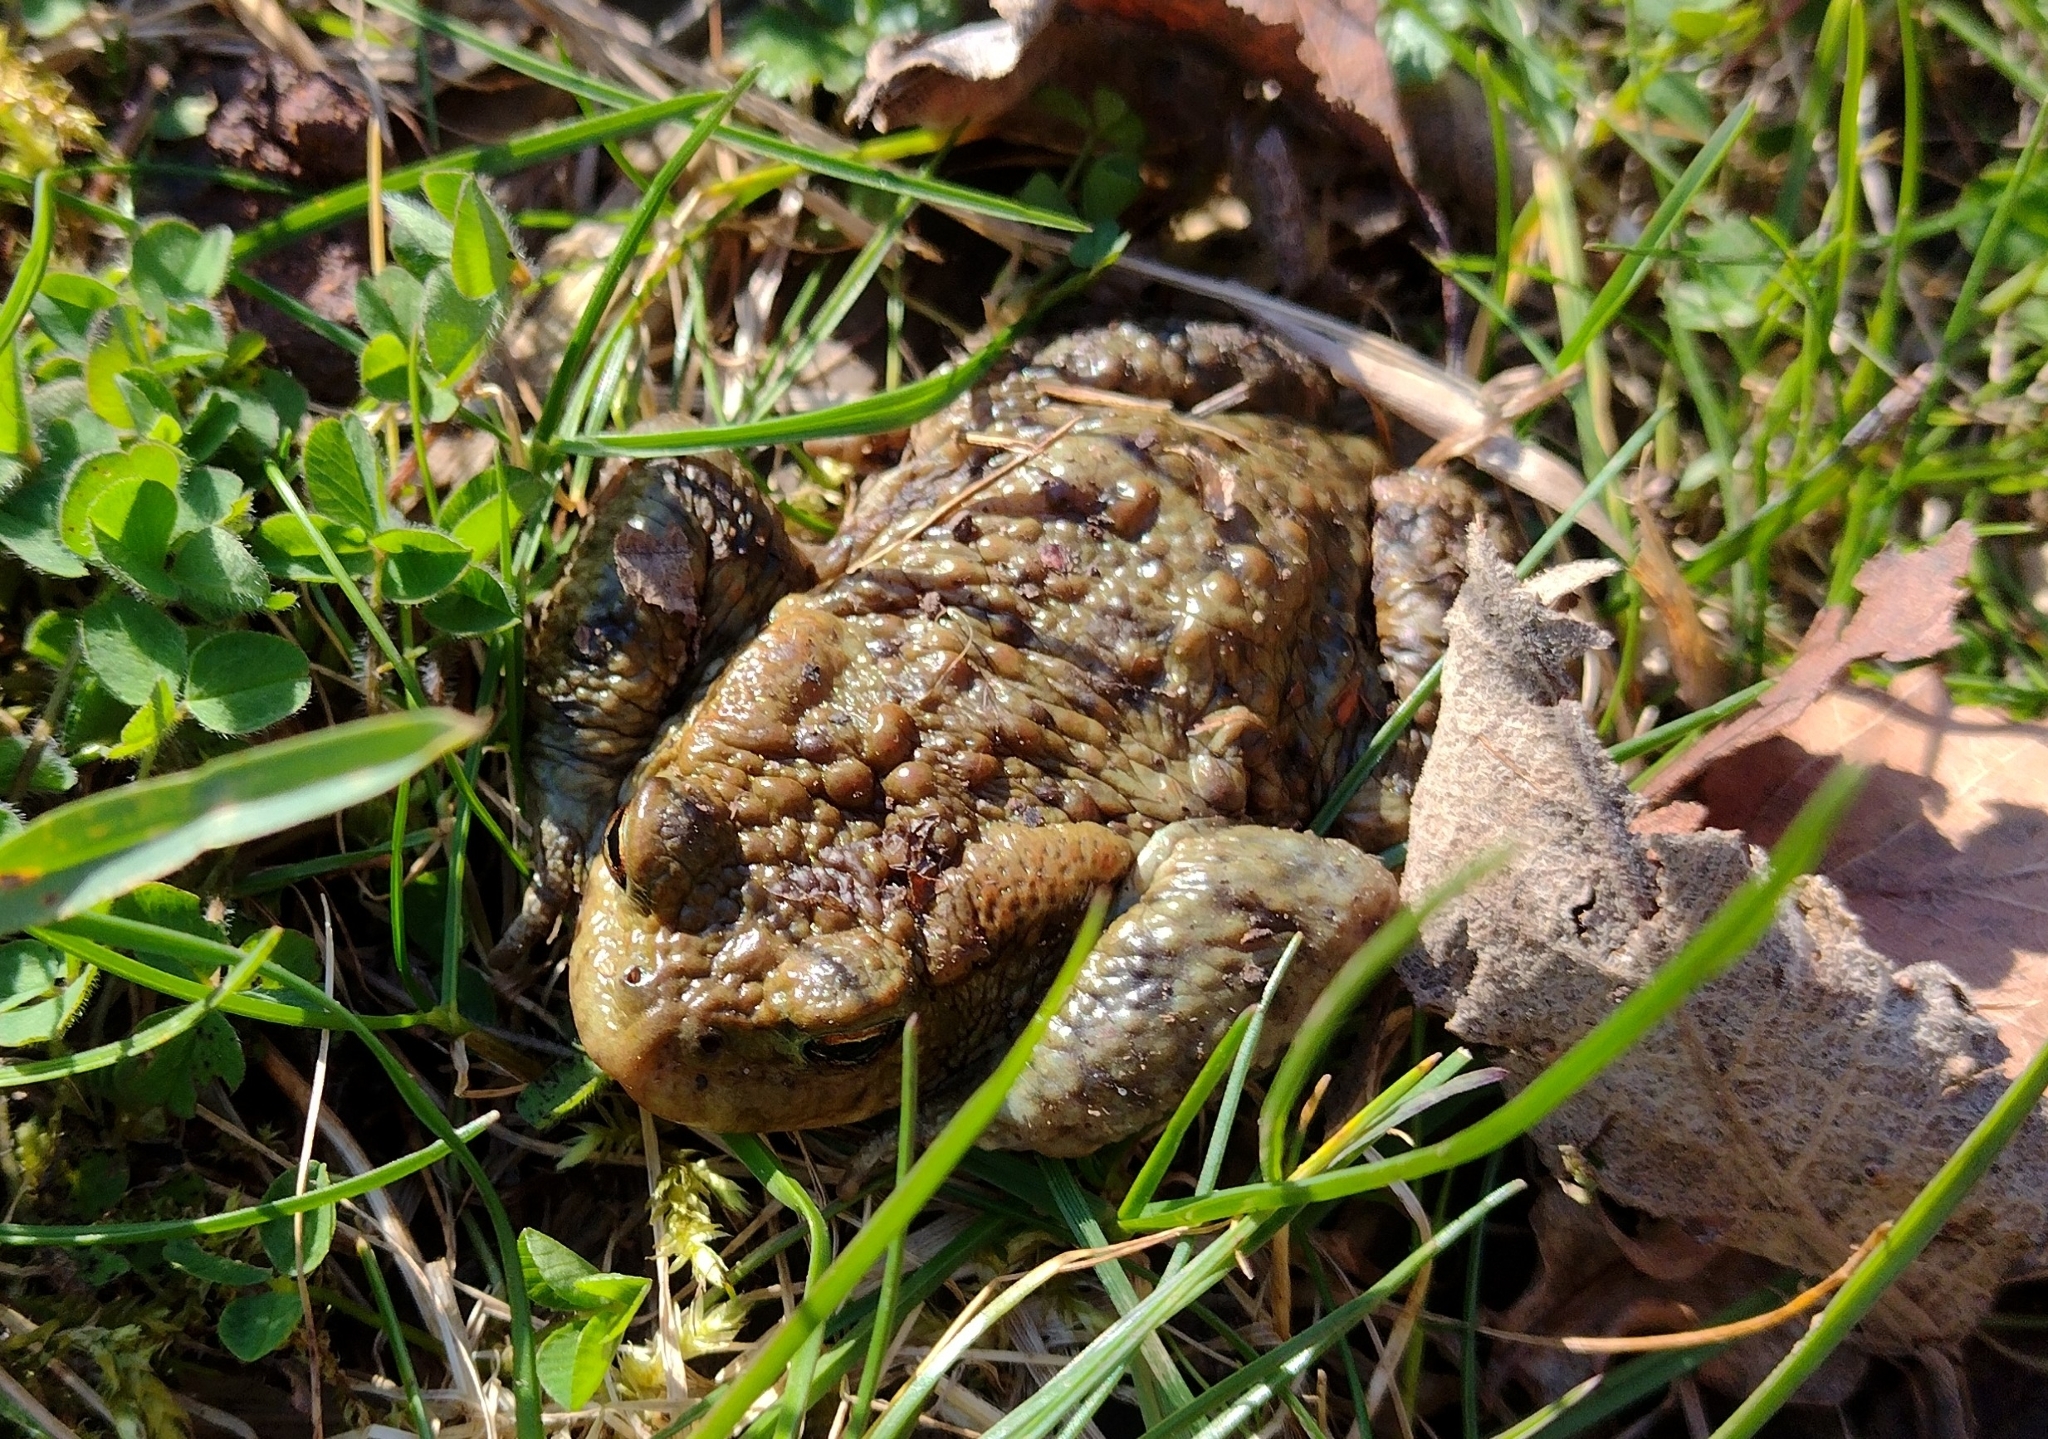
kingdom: Animalia
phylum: Chordata
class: Amphibia
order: Anura
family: Bufonidae
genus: Bufo
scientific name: Bufo bufo
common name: Common toad
